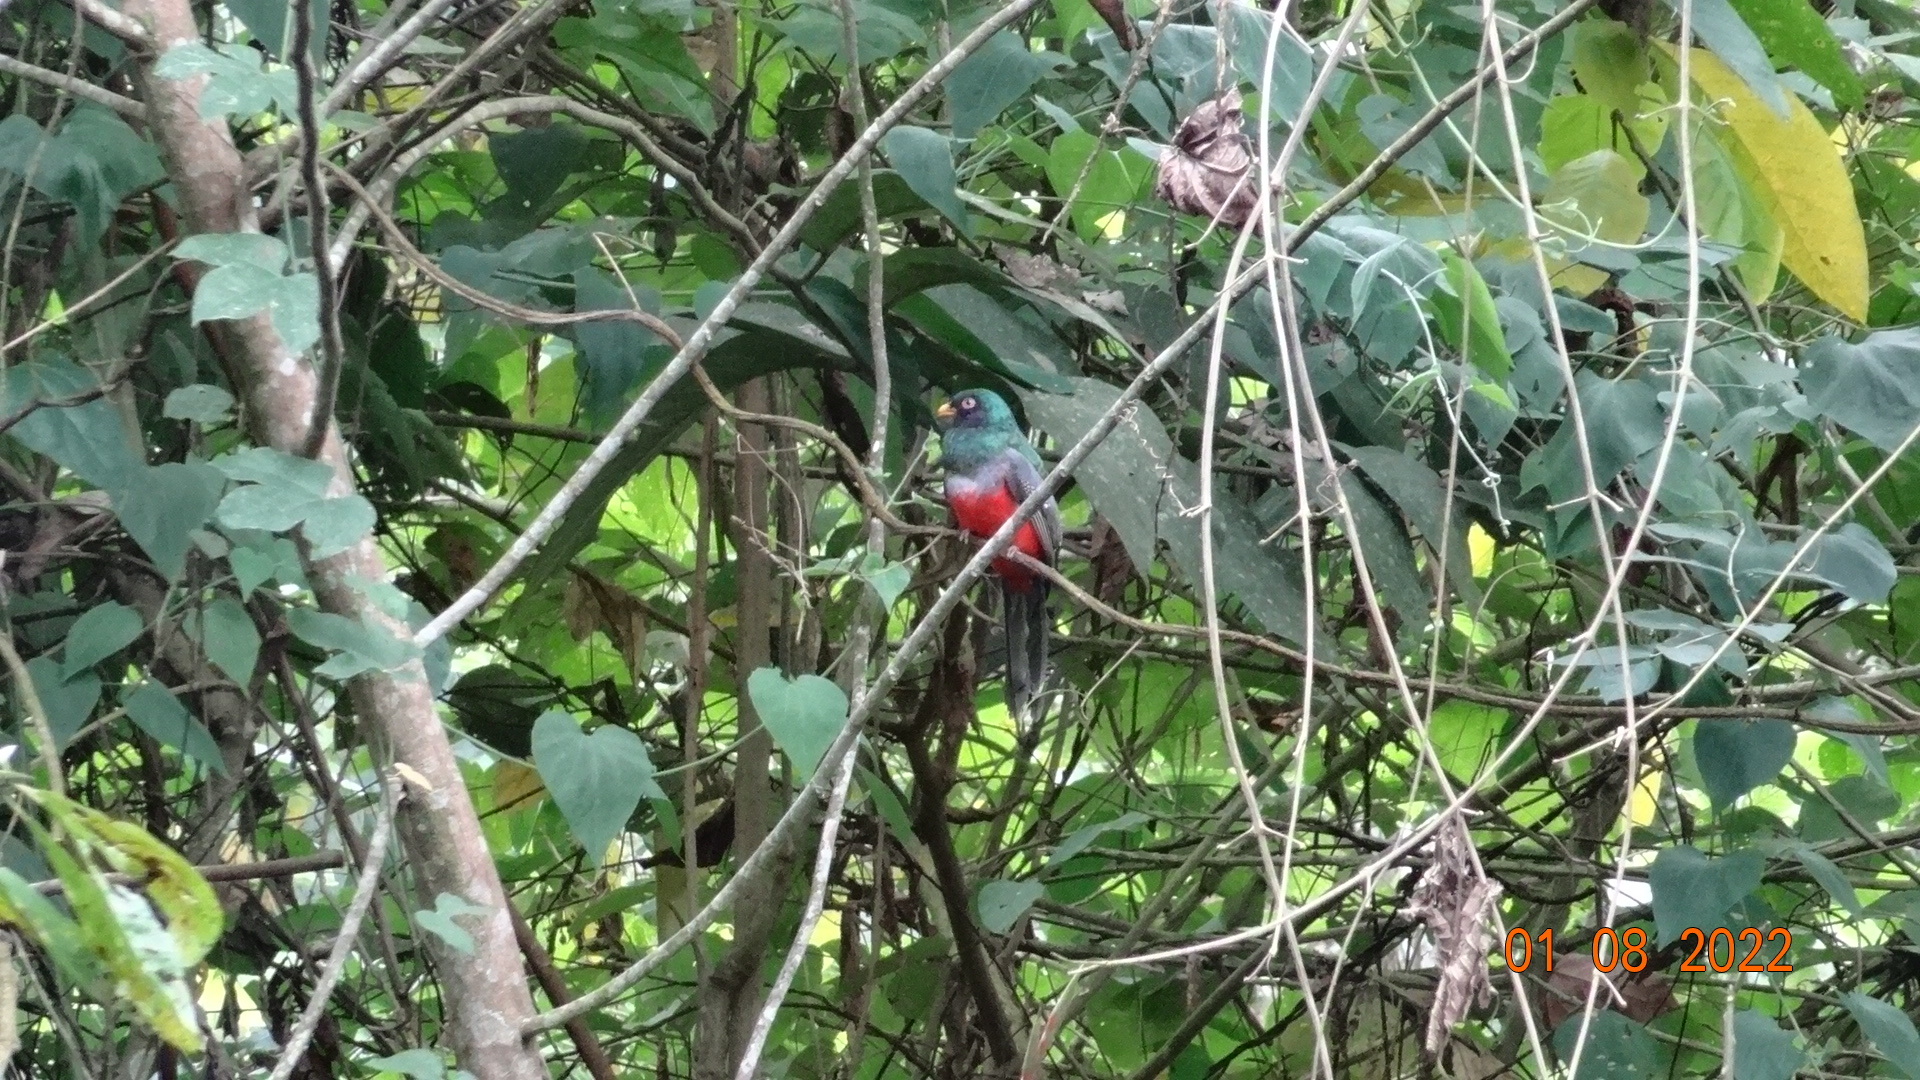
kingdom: Animalia
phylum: Chordata
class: Aves
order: Trogoniformes
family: Trogonidae
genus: Trogon
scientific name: Trogon mesurus
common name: Ecuadorian trogon
